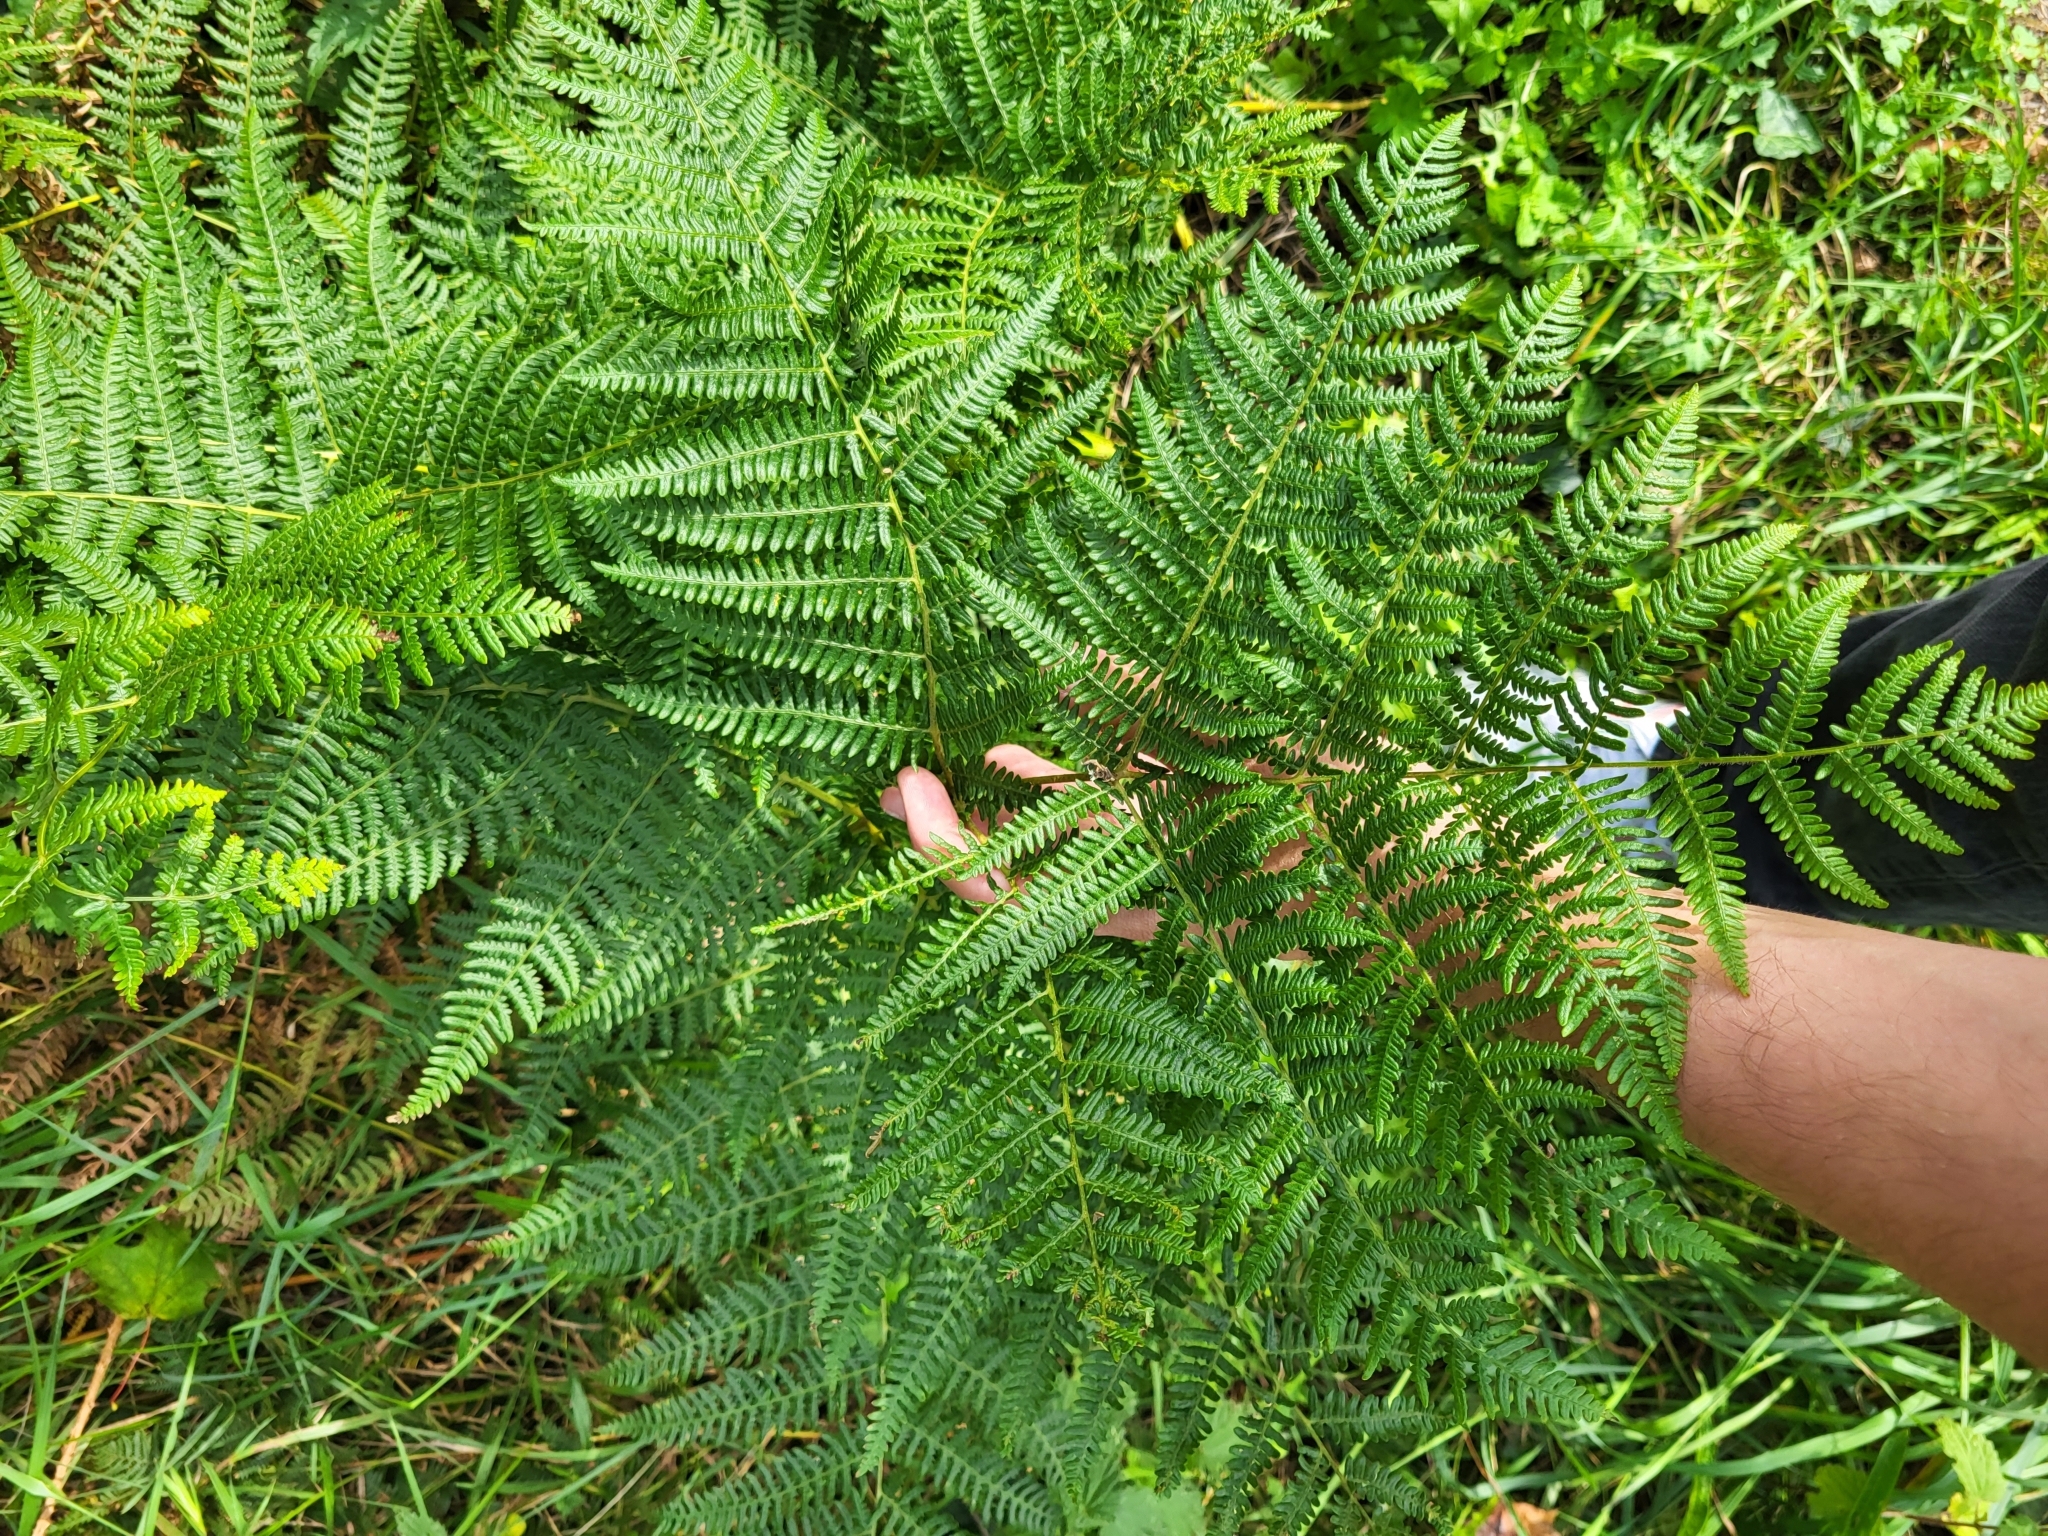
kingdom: Plantae
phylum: Tracheophyta
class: Polypodiopsida
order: Polypodiales
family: Dennstaedtiaceae
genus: Pteridium
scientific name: Pteridium aquilinum
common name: Bracken
